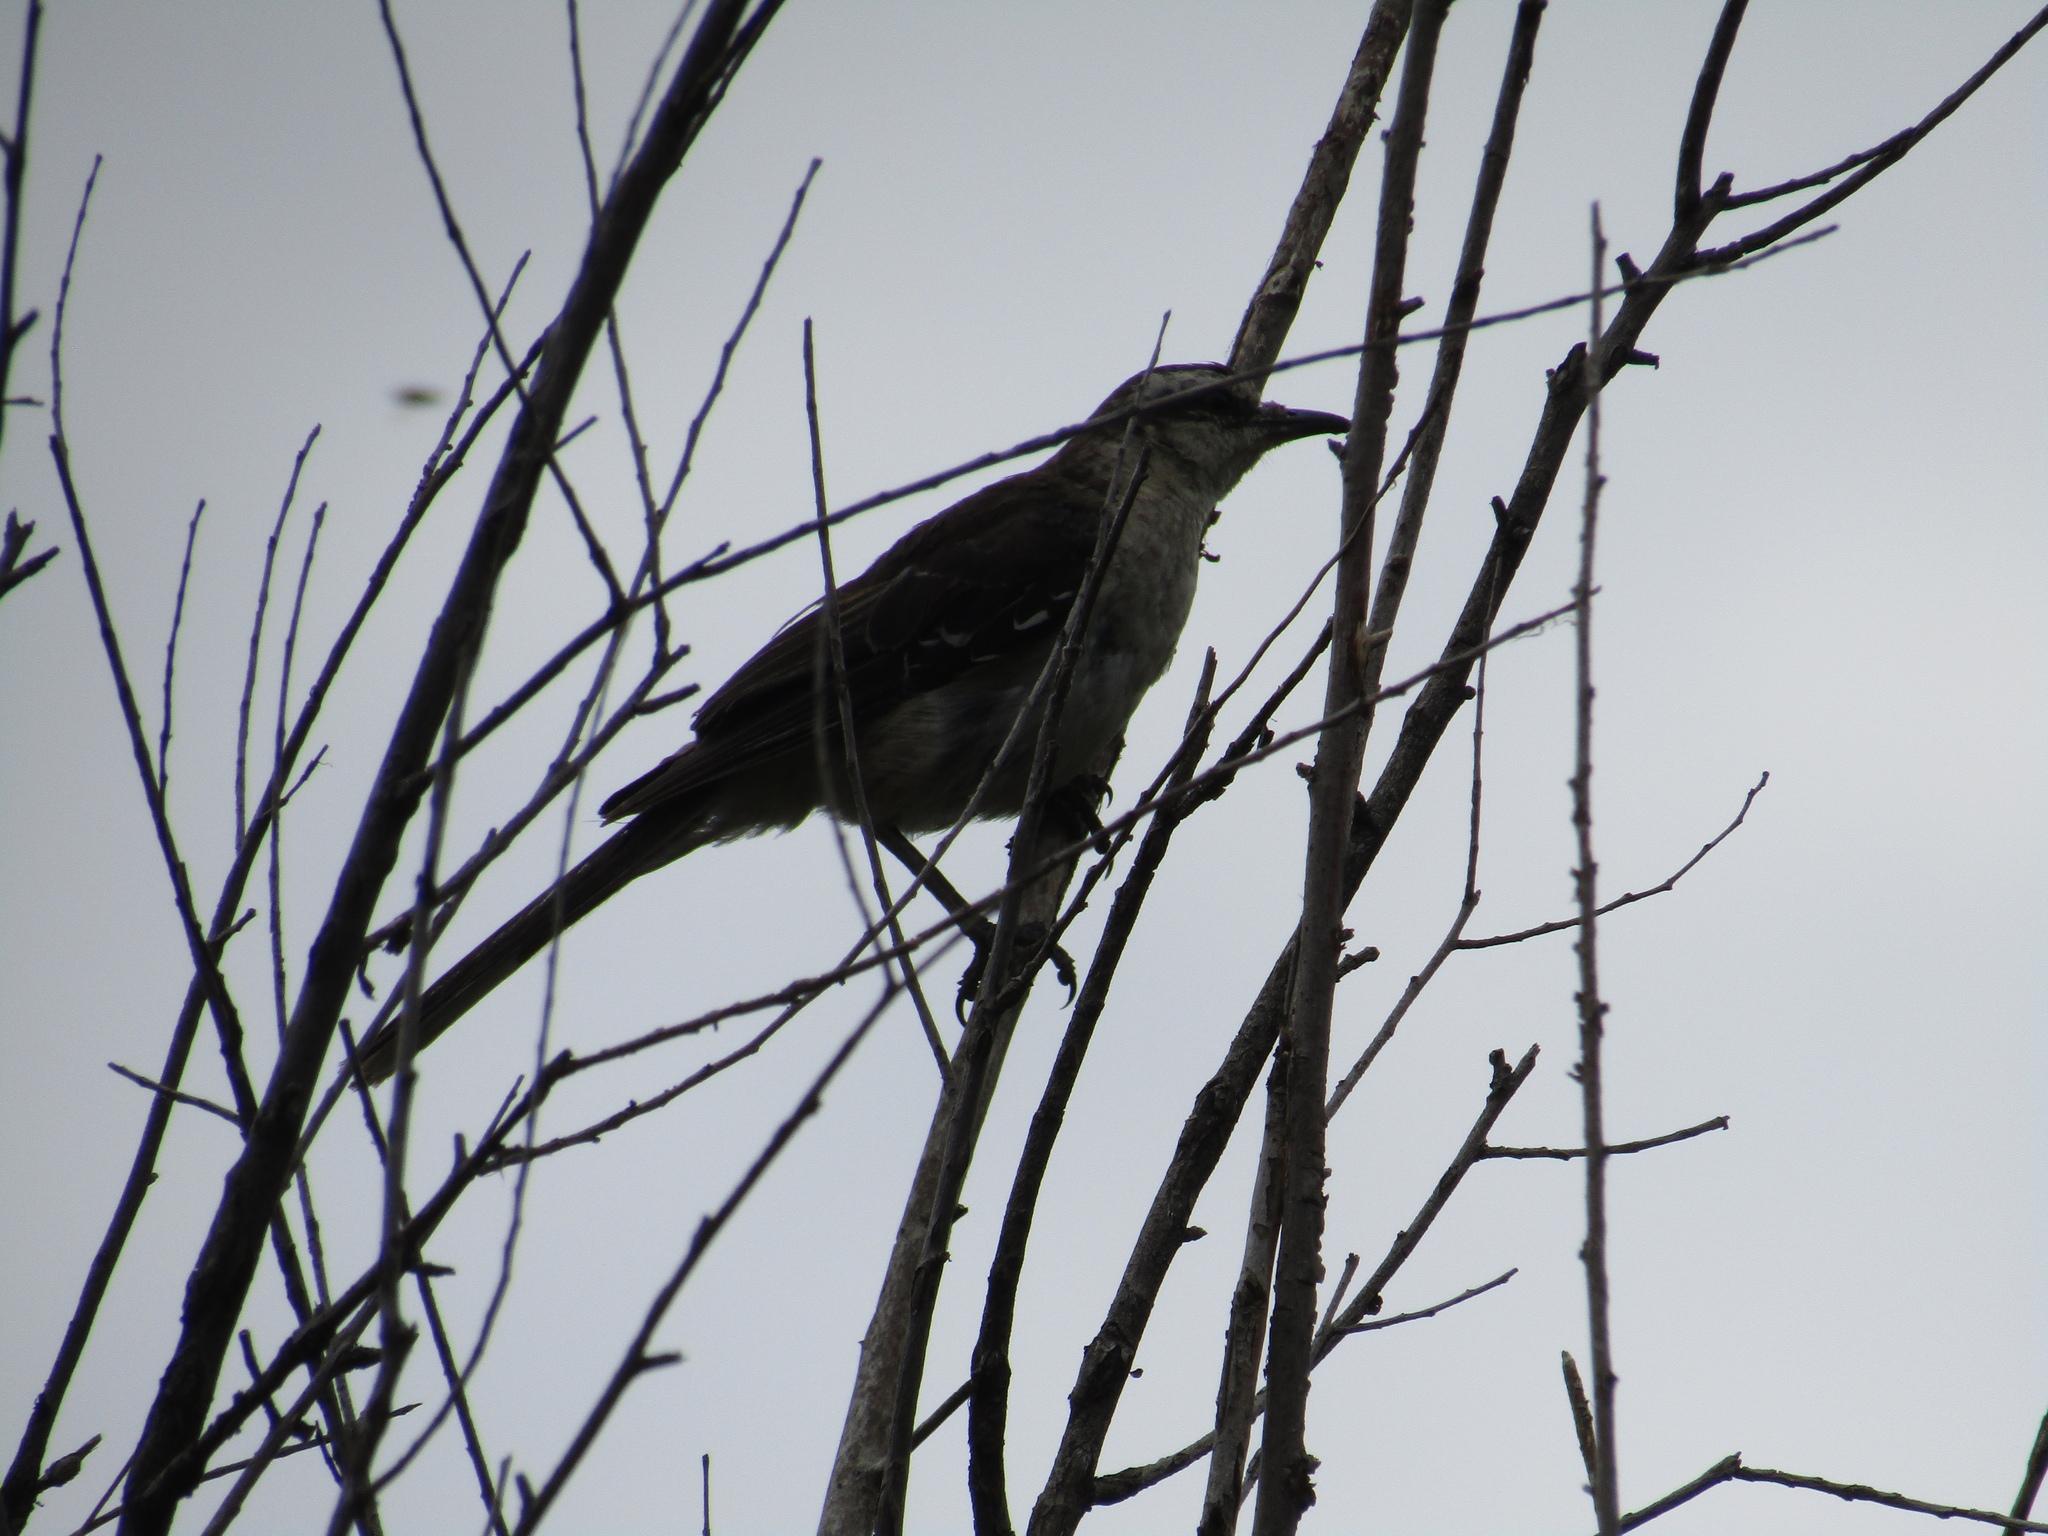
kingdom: Animalia
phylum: Chordata
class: Aves
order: Passeriformes
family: Mimidae
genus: Mimus
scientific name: Mimus saturninus
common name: Chalk-browed mockingbird
